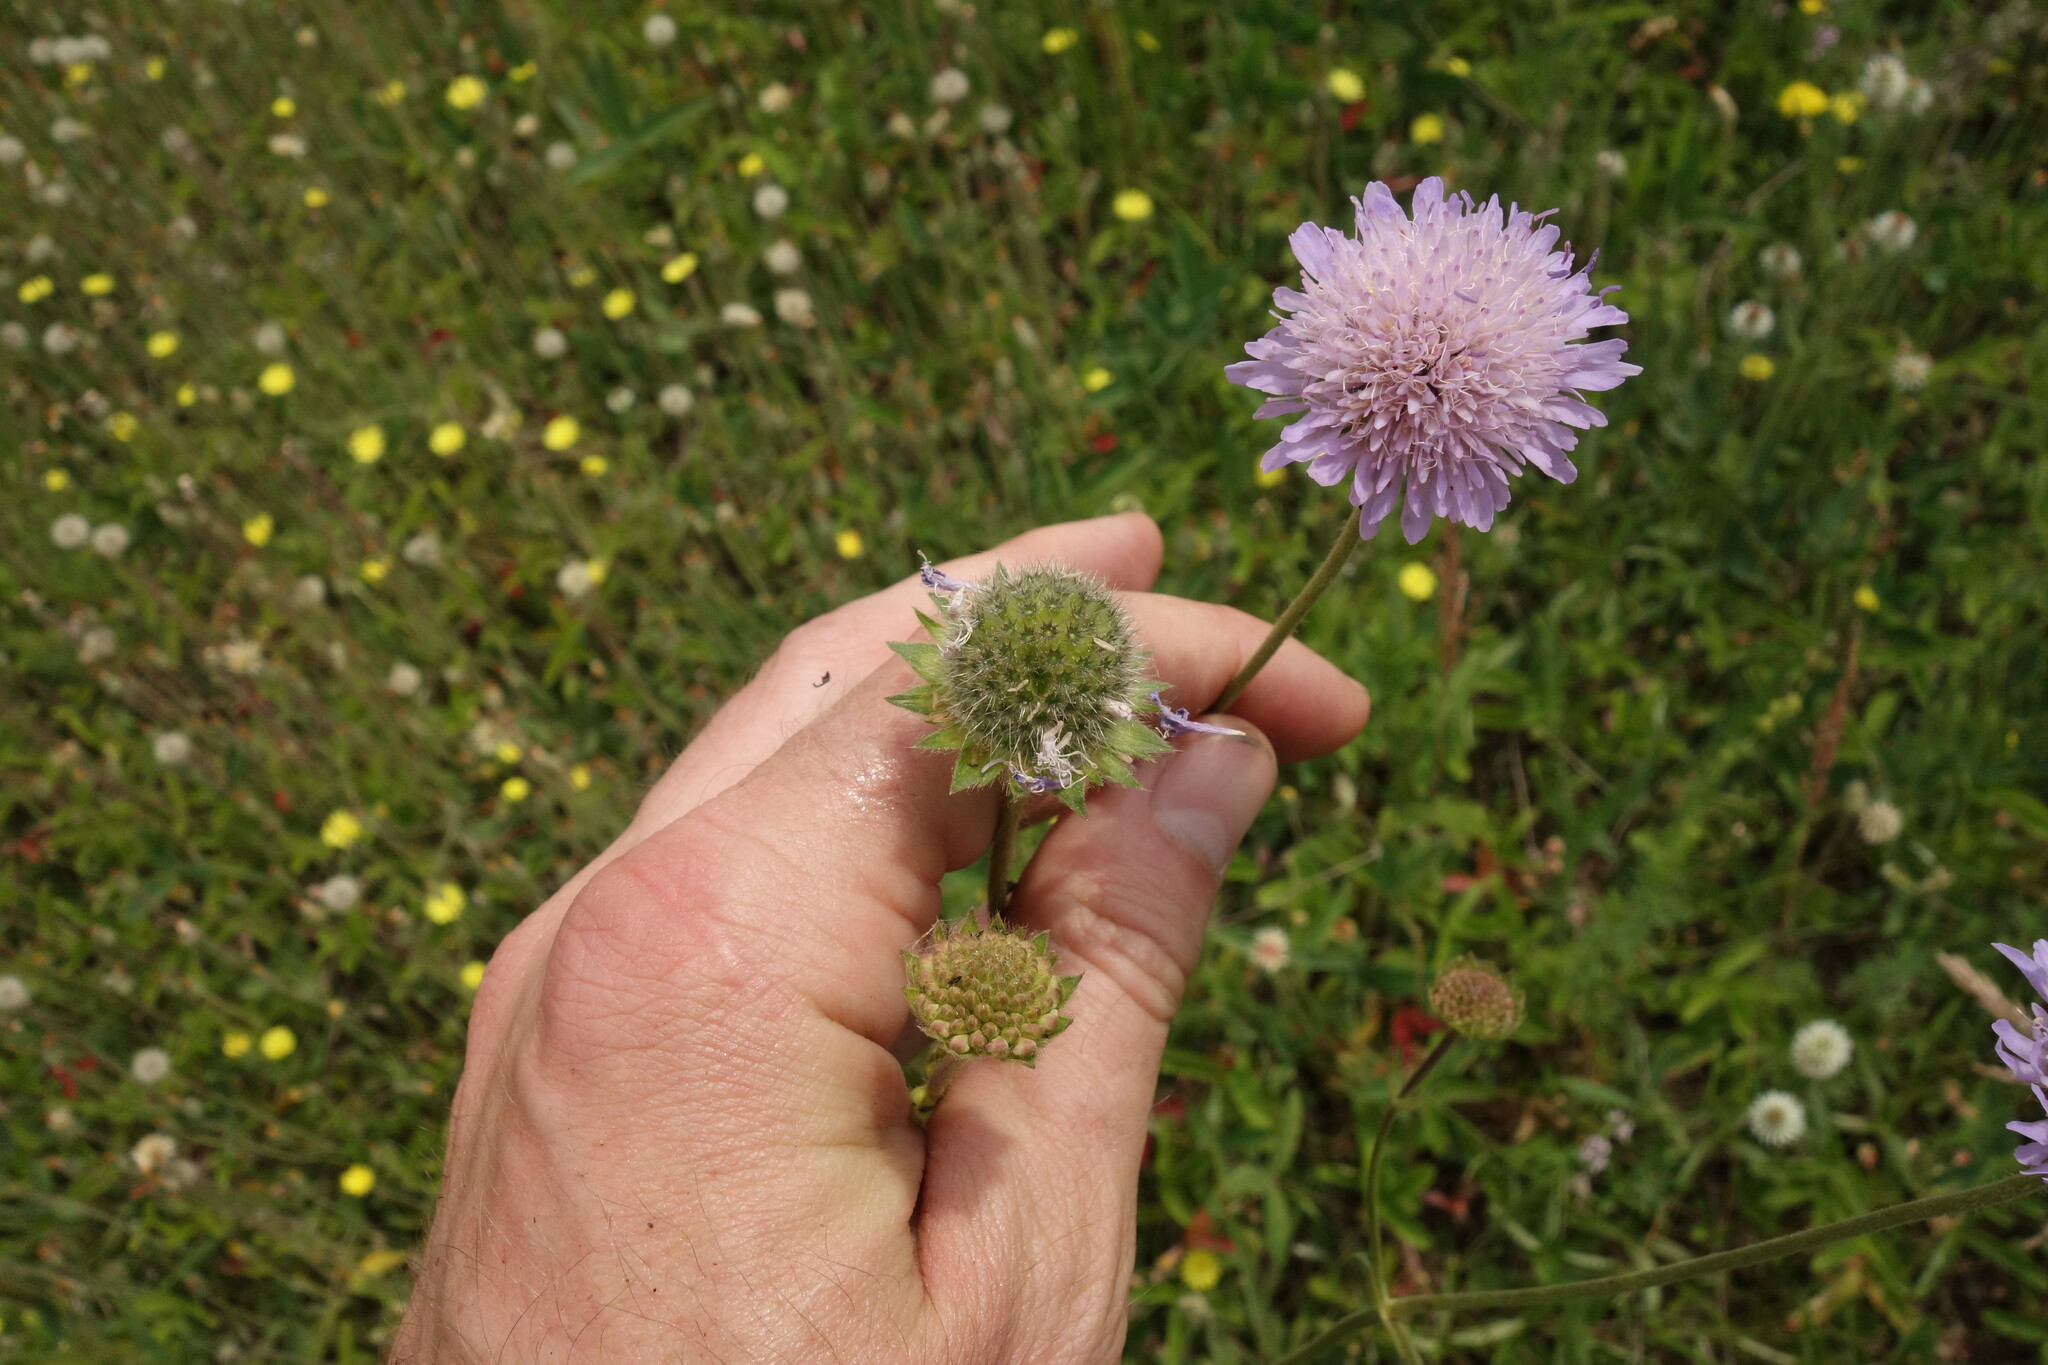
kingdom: Plantae
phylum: Tracheophyta
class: Magnoliopsida
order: Dipsacales
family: Caprifoliaceae
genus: Knautia
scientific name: Knautia arvensis
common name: Field scabiosa
